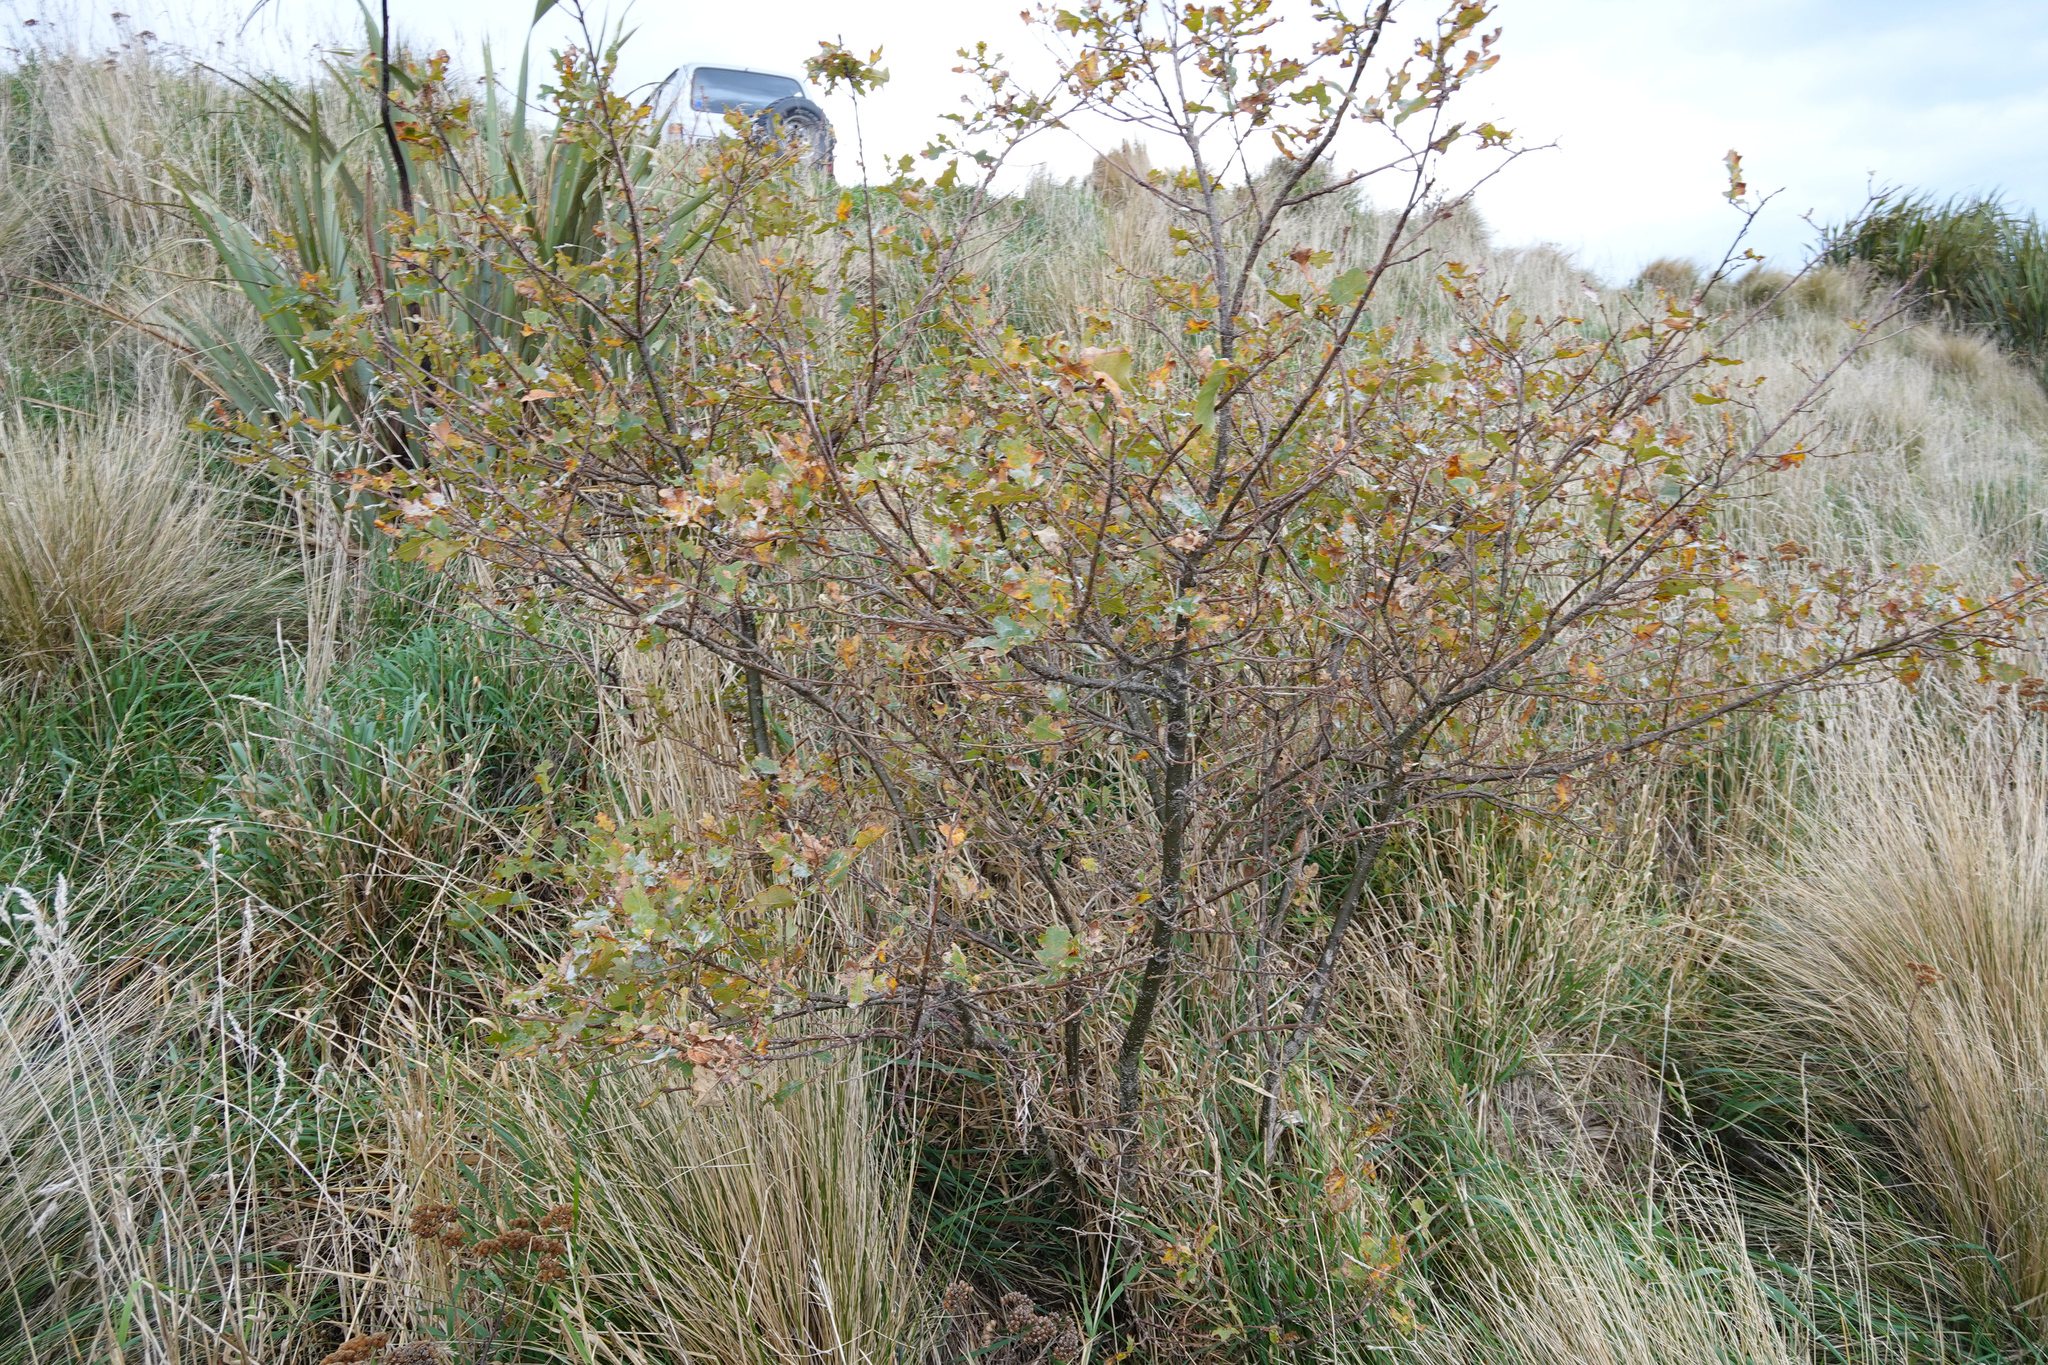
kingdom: Plantae
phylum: Tracheophyta
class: Magnoliopsida
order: Fagales
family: Fagaceae
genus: Quercus
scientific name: Quercus robur
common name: Pedunculate oak
